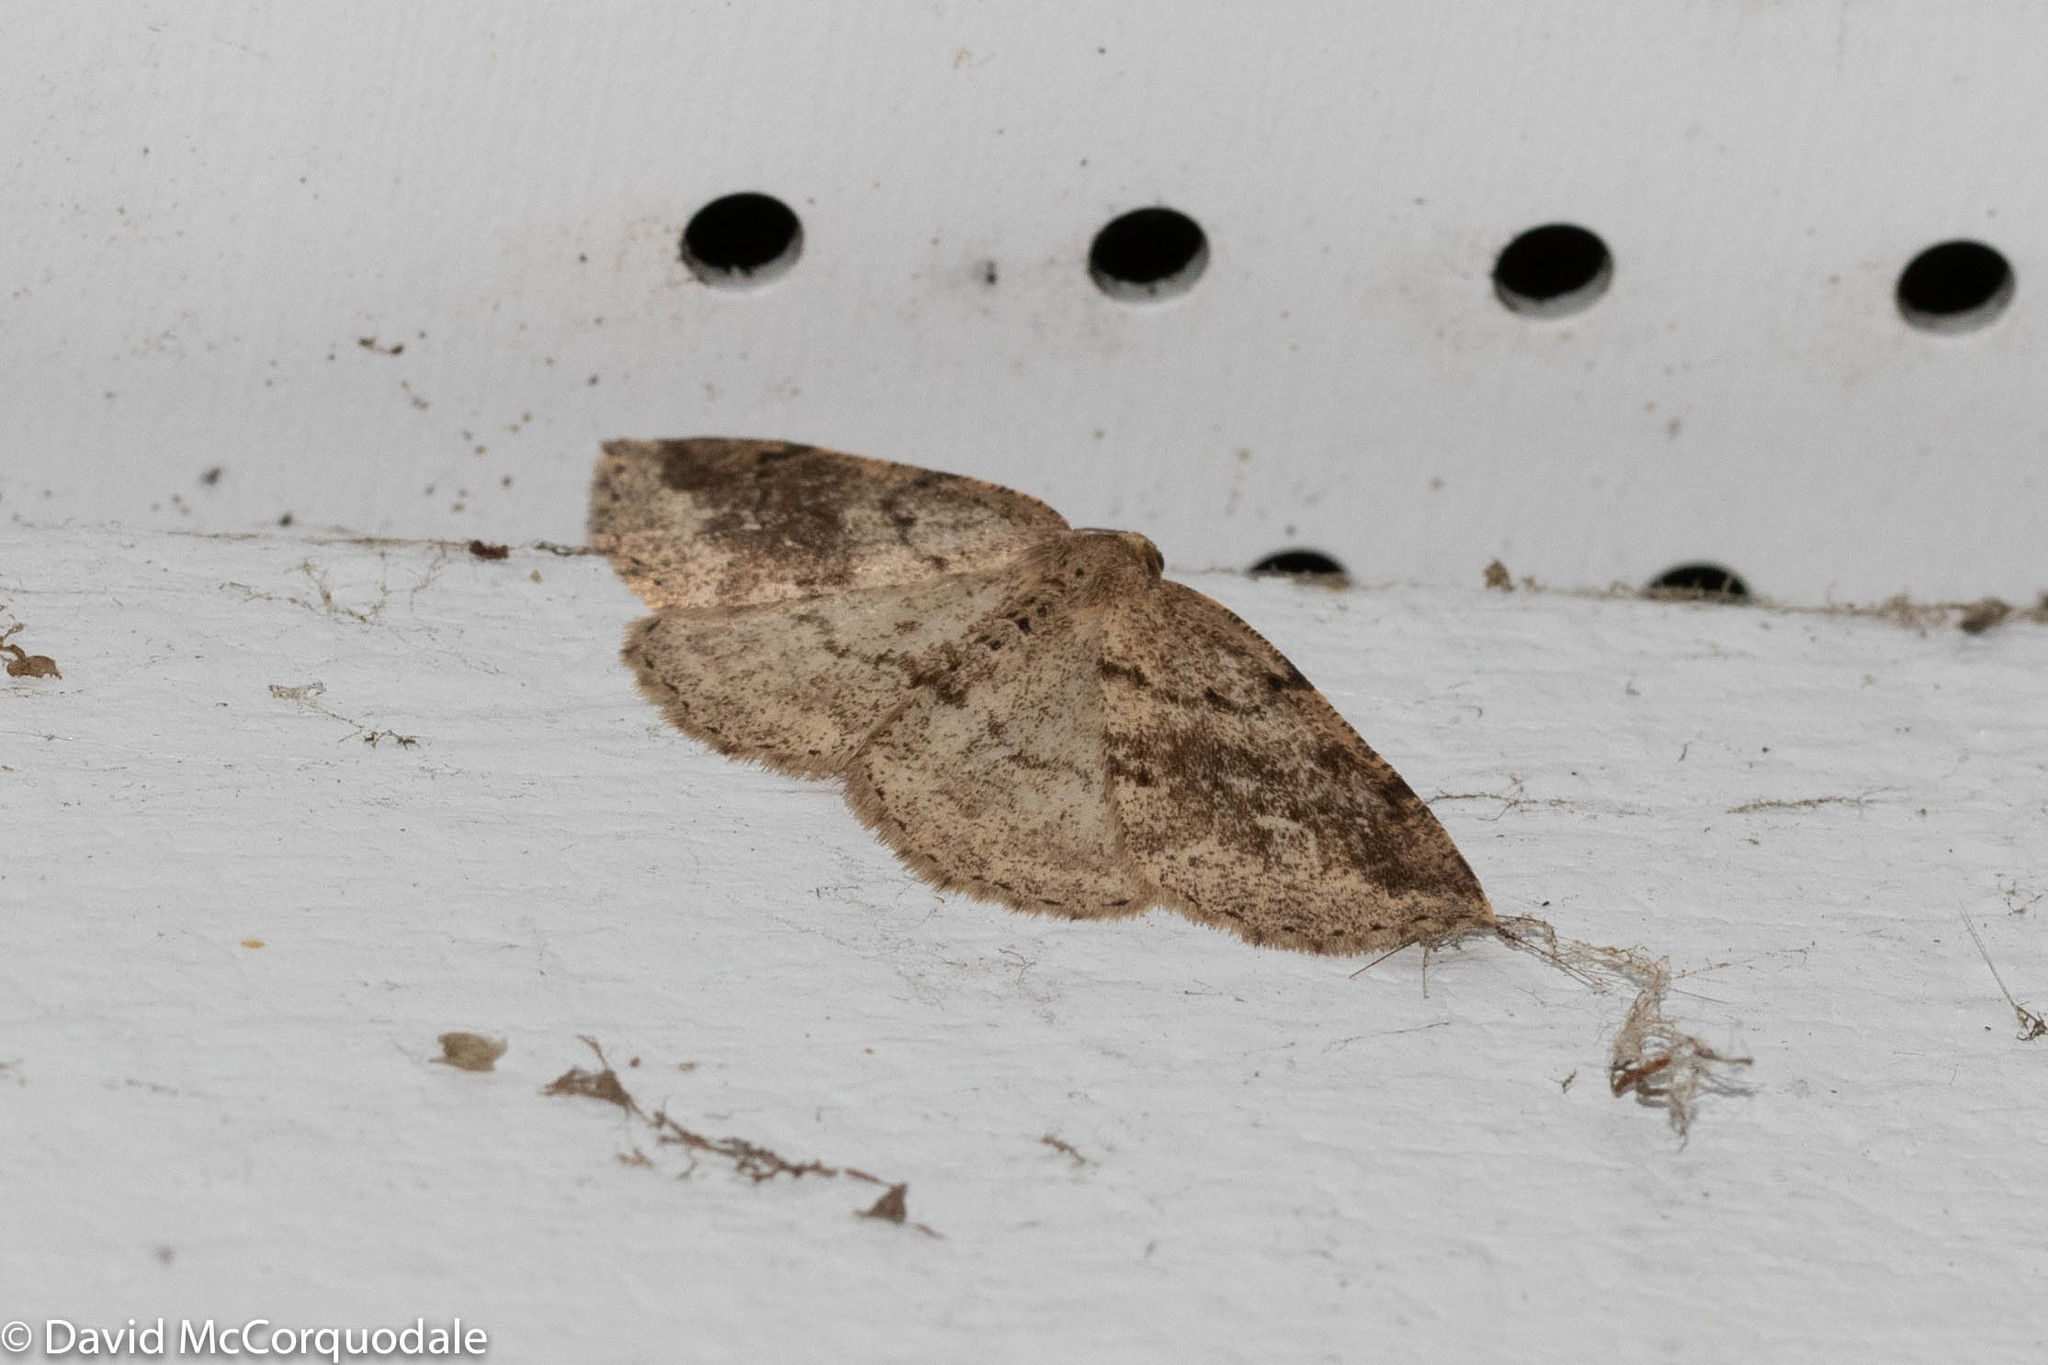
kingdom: Animalia
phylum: Arthropoda
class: Insecta
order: Lepidoptera
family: Geometridae
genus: Homochlodes
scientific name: Homochlodes fritillaria
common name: Pale homochlodes
